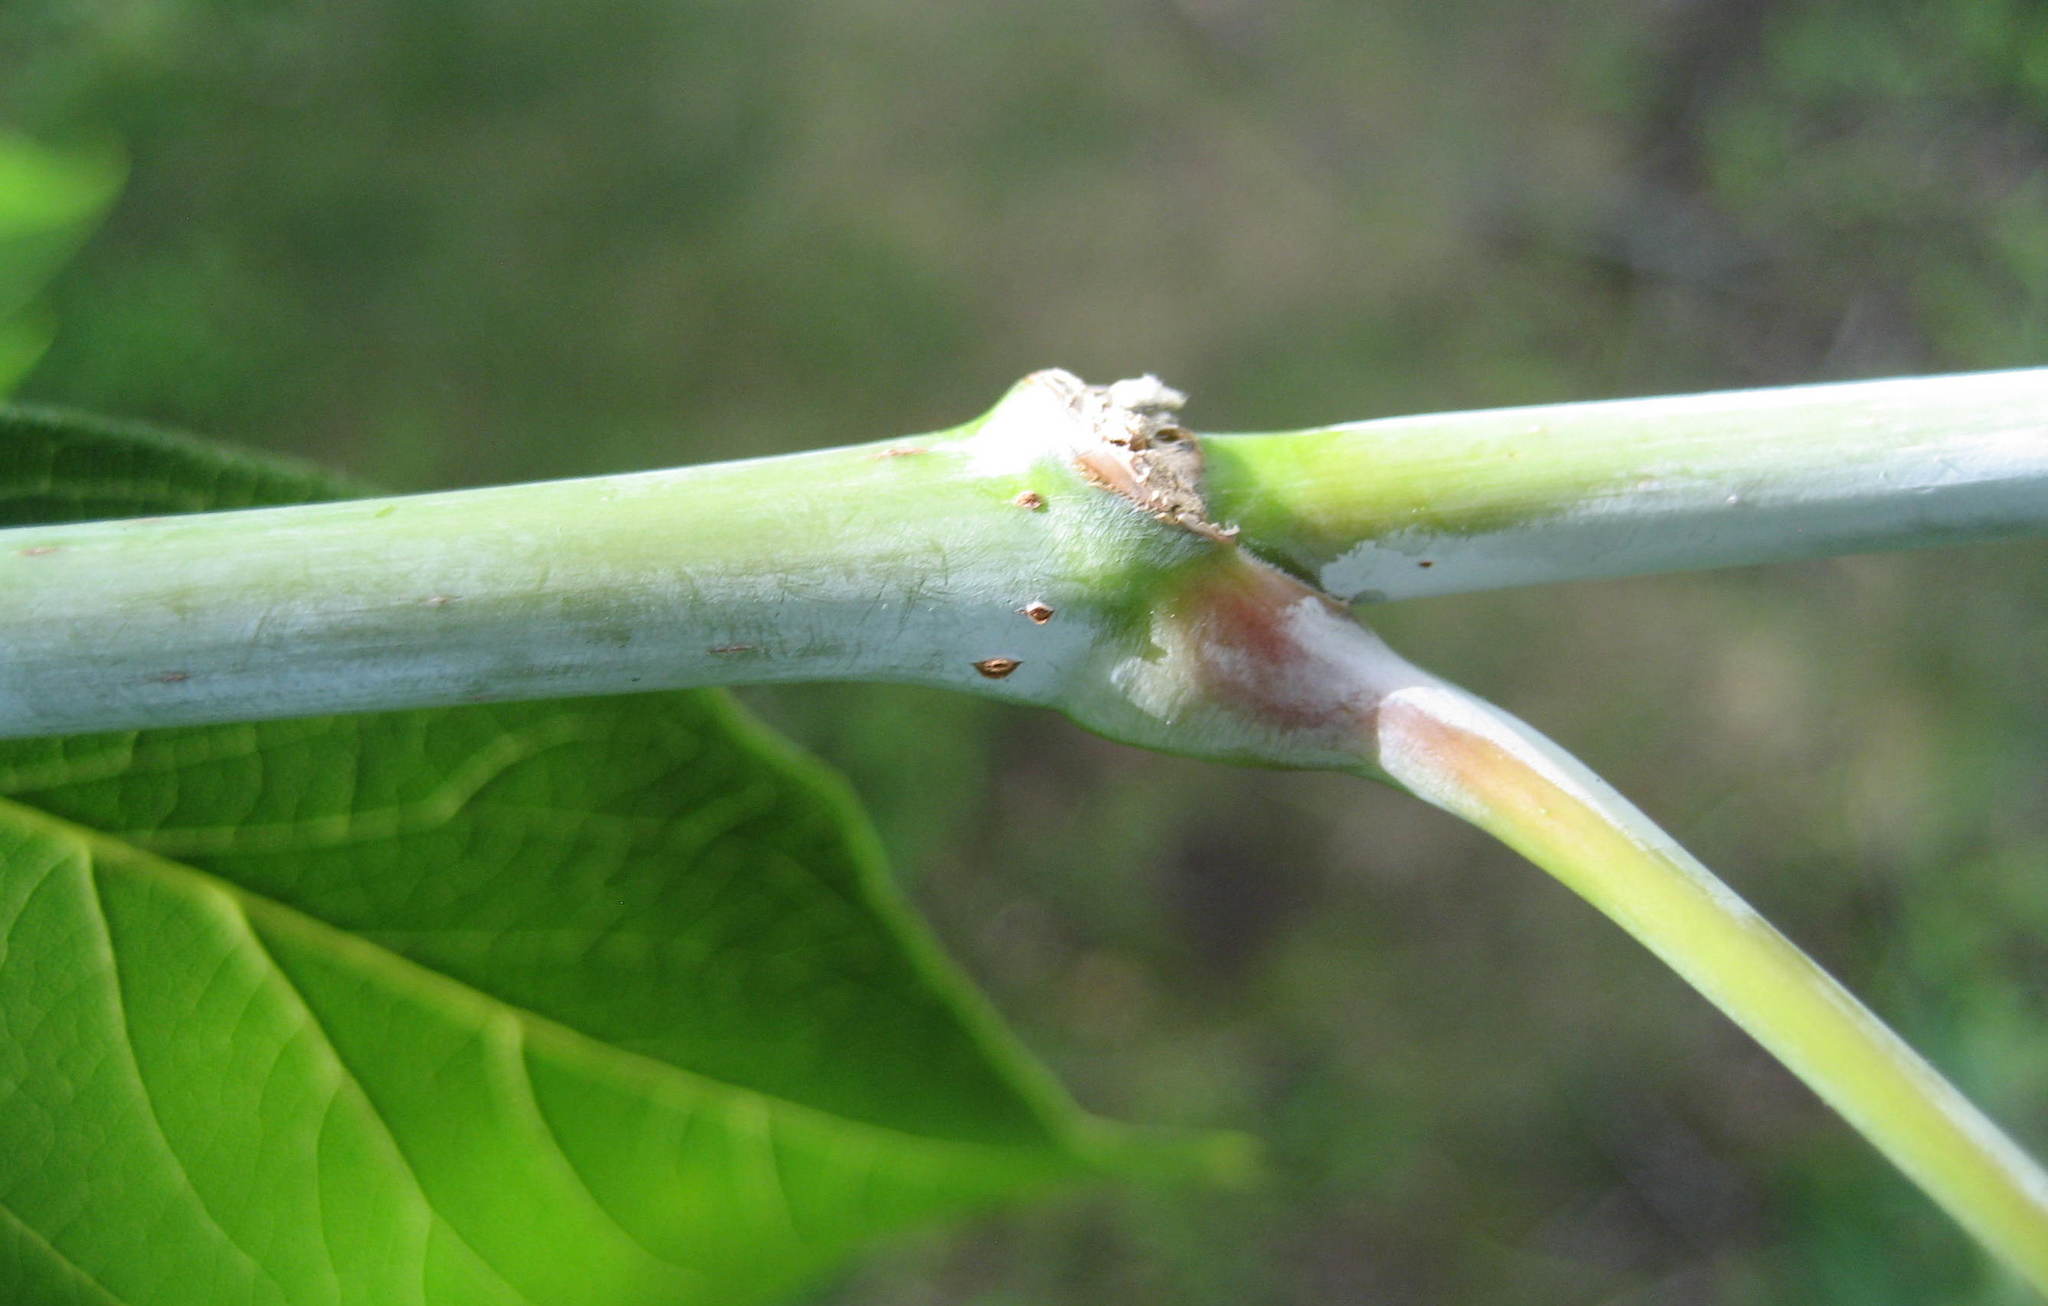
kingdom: Plantae
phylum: Tracheophyta
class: Magnoliopsida
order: Sapindales
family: Sapindaceae
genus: Acer
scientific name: Acer negundo
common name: Ashleaf maple
